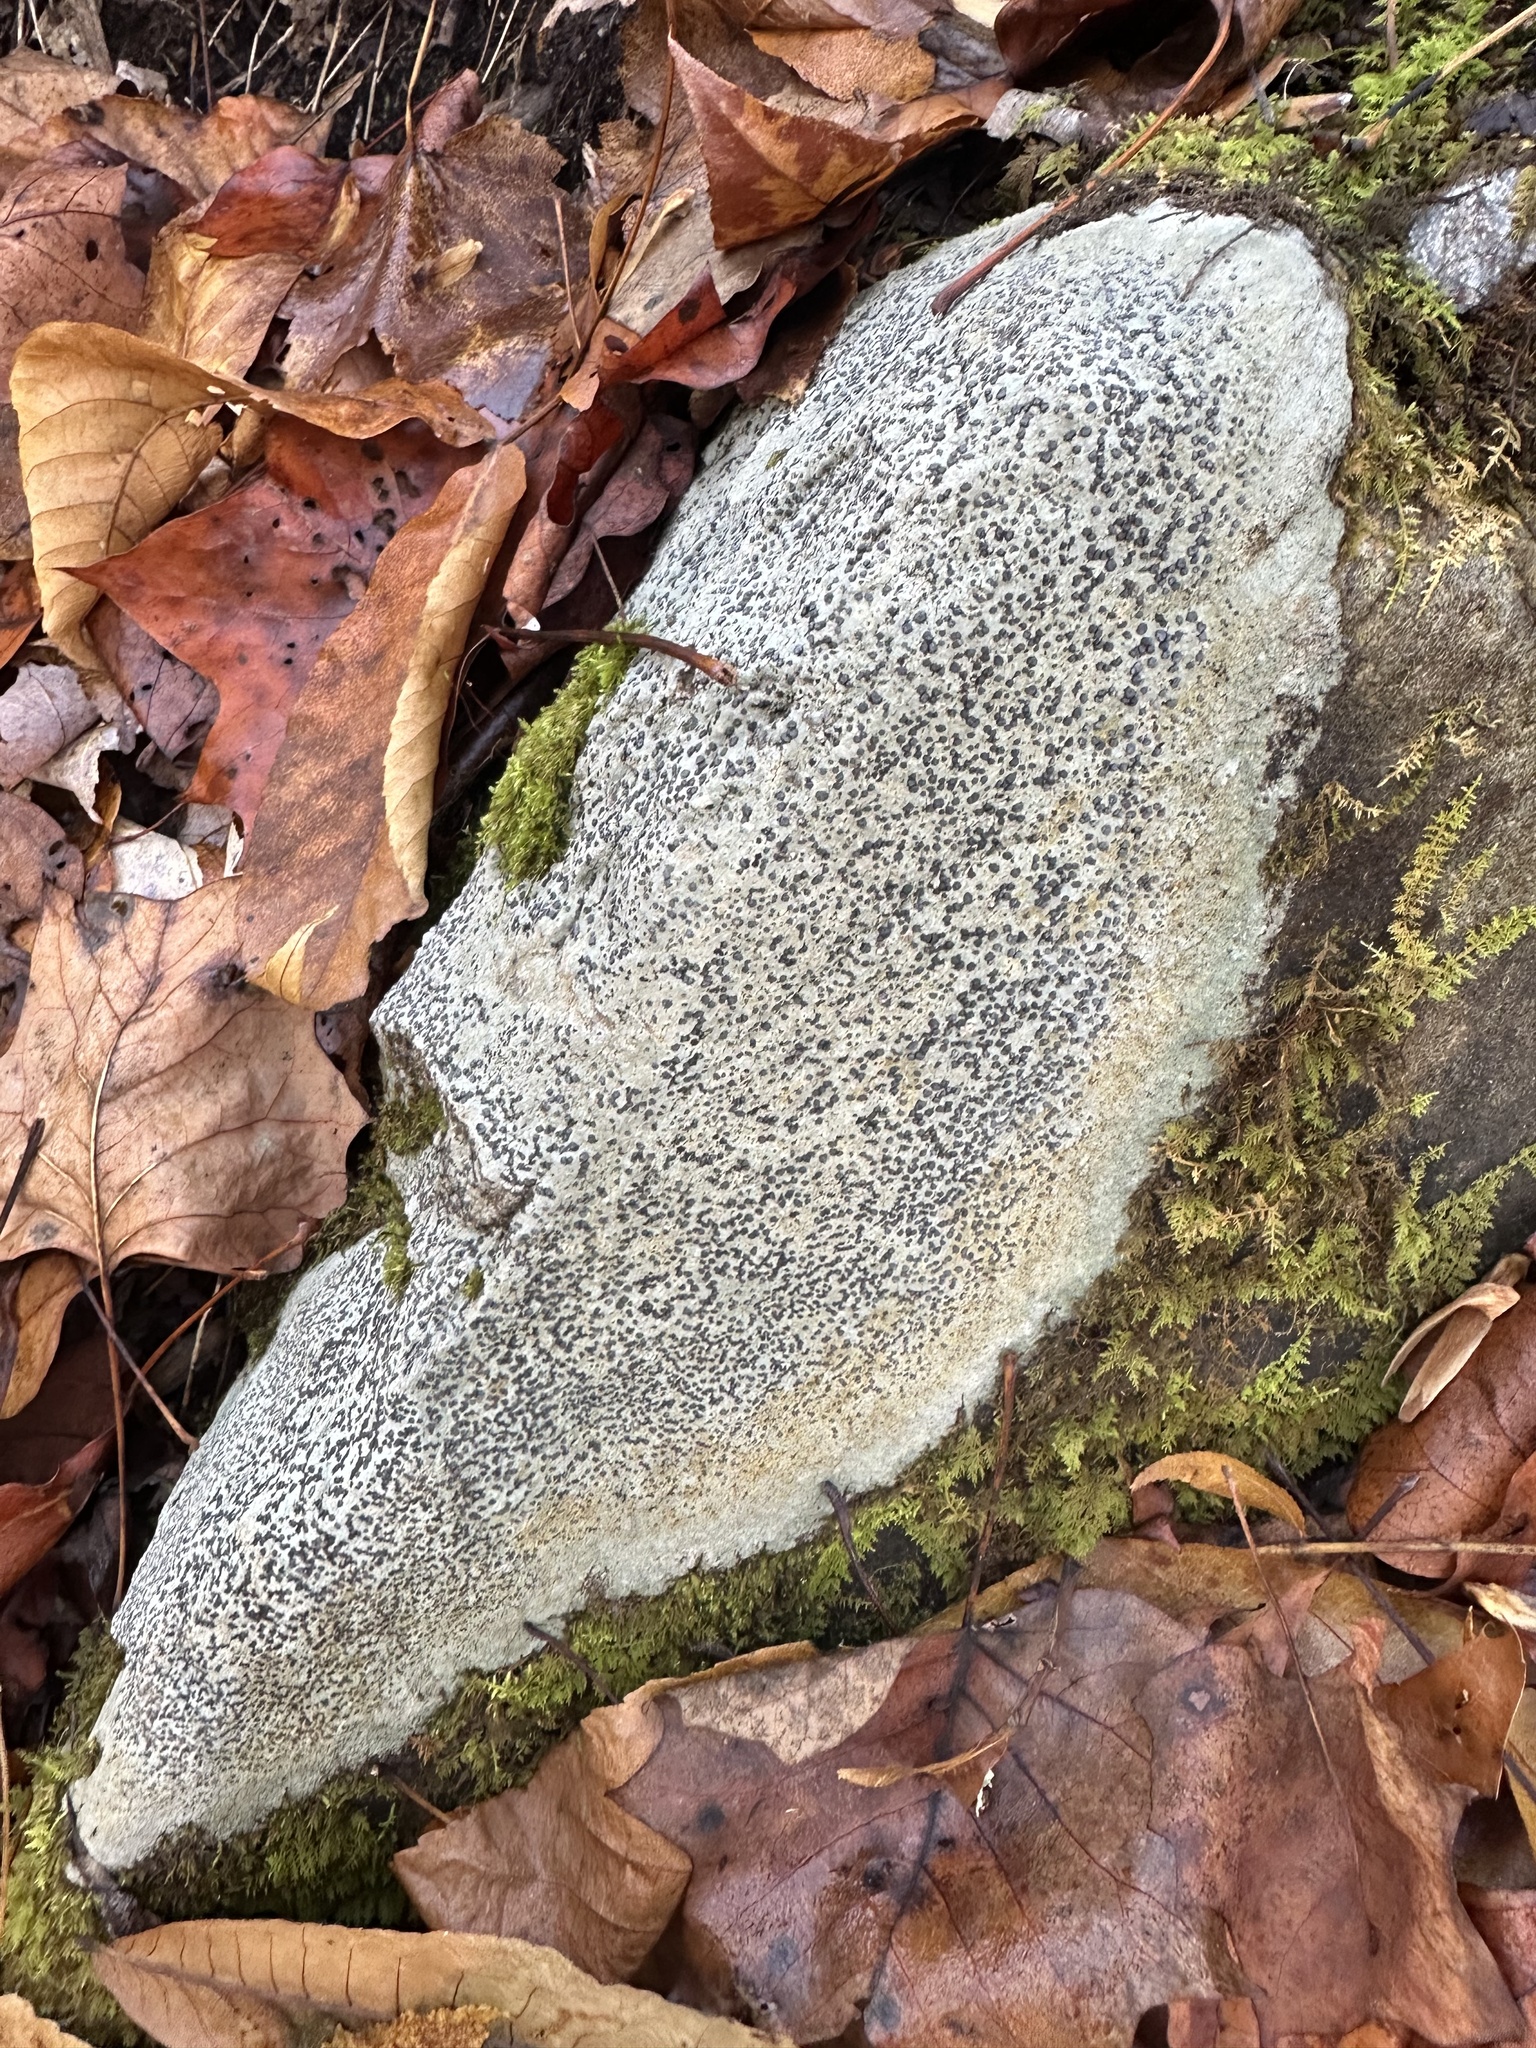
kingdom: Fungi
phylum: Ascomycota
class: Lecanoromycetes
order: Lecideales
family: Lecideaceae
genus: Porpidia
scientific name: Porpidia albocaerulescens
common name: Smokey-eyed boulder lichen
